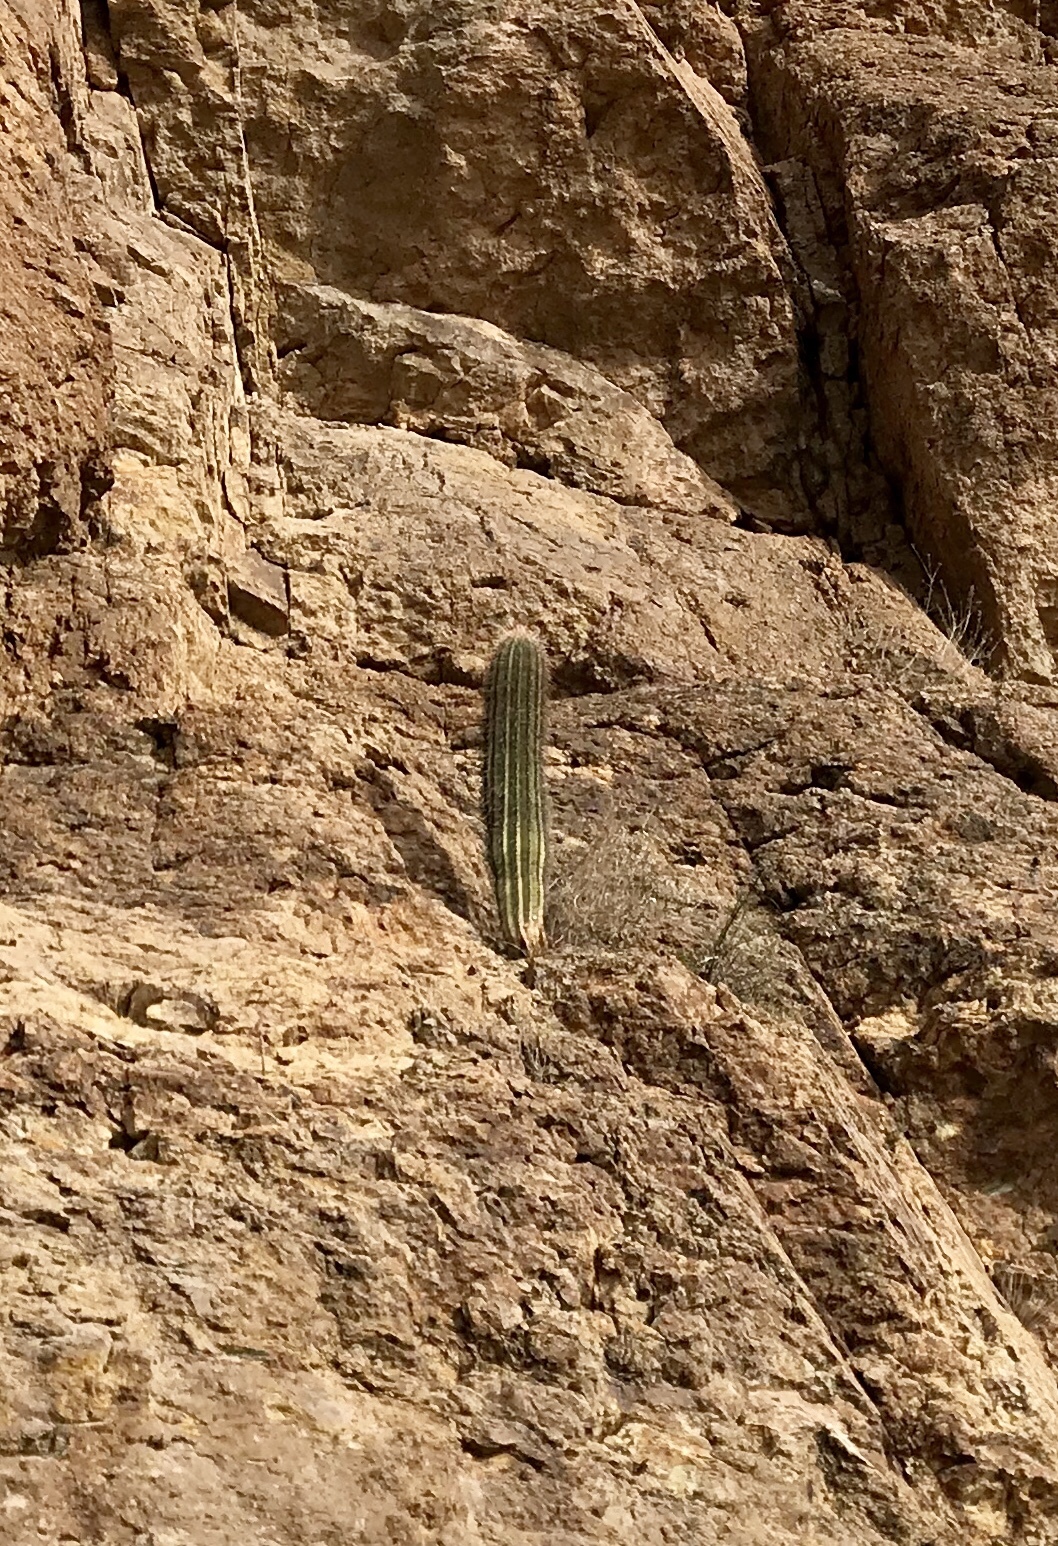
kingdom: Plantae
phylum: Tracheophyta
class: Magnoliopsida
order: Caryophyllales
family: Cactaceae
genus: Carnegiea
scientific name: Carnegiea gigantea
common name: Saguaro
